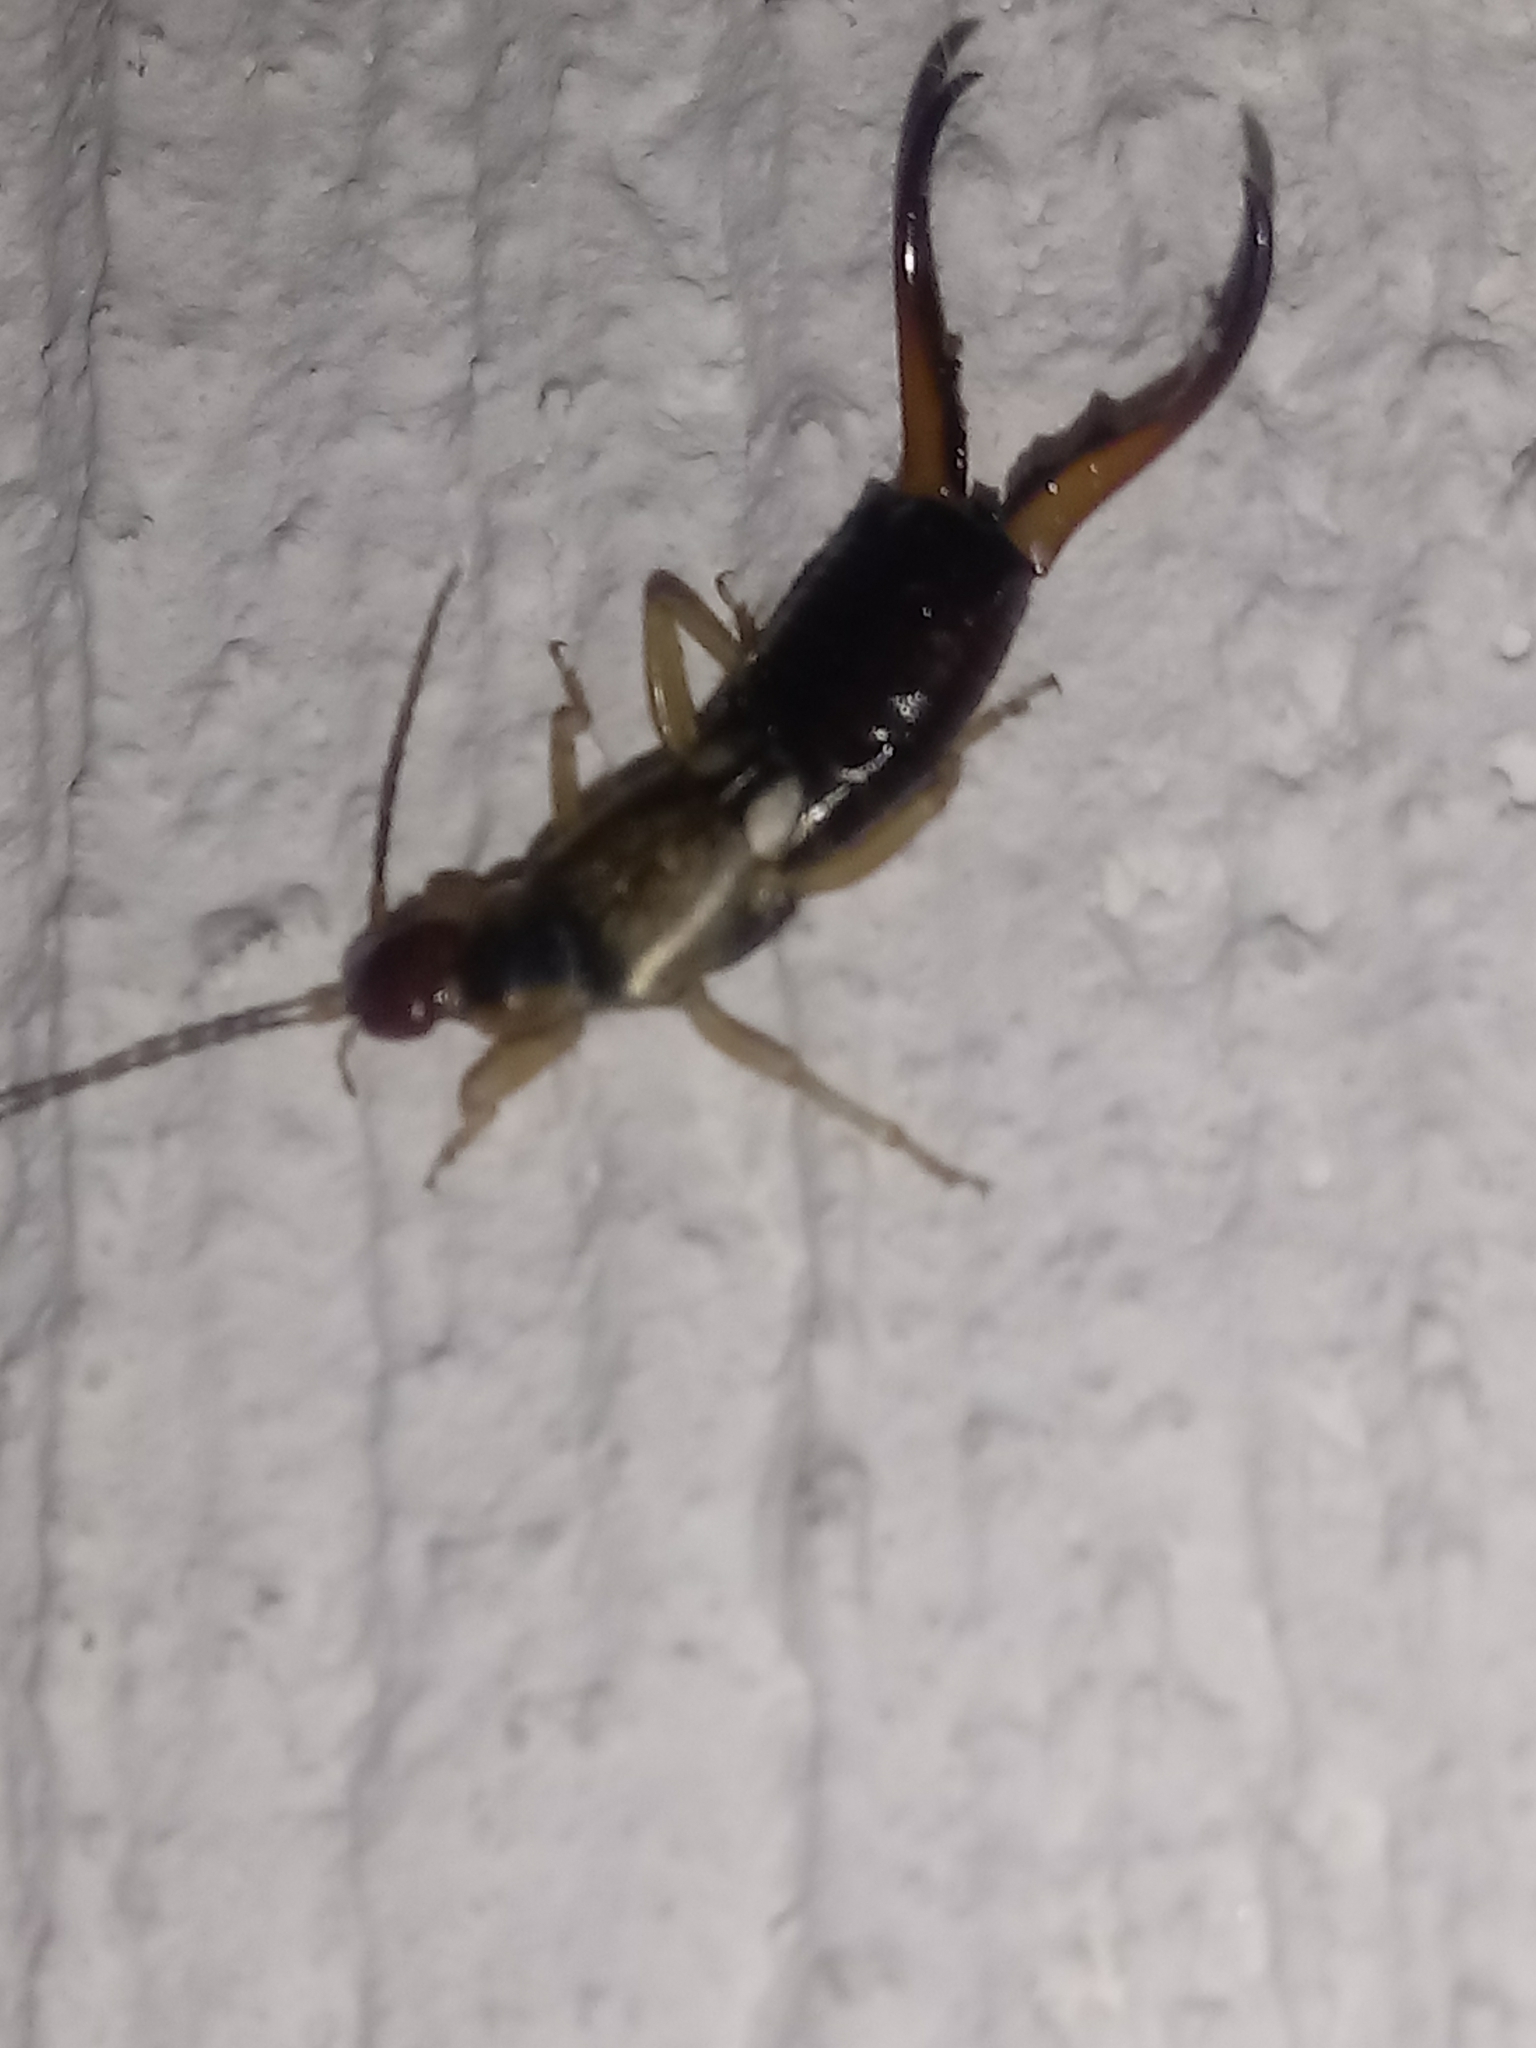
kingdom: Animalia
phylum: Arthropoda
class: Insecta
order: Dermaptera
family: Forficulidae
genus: Forficula
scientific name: Forficula
